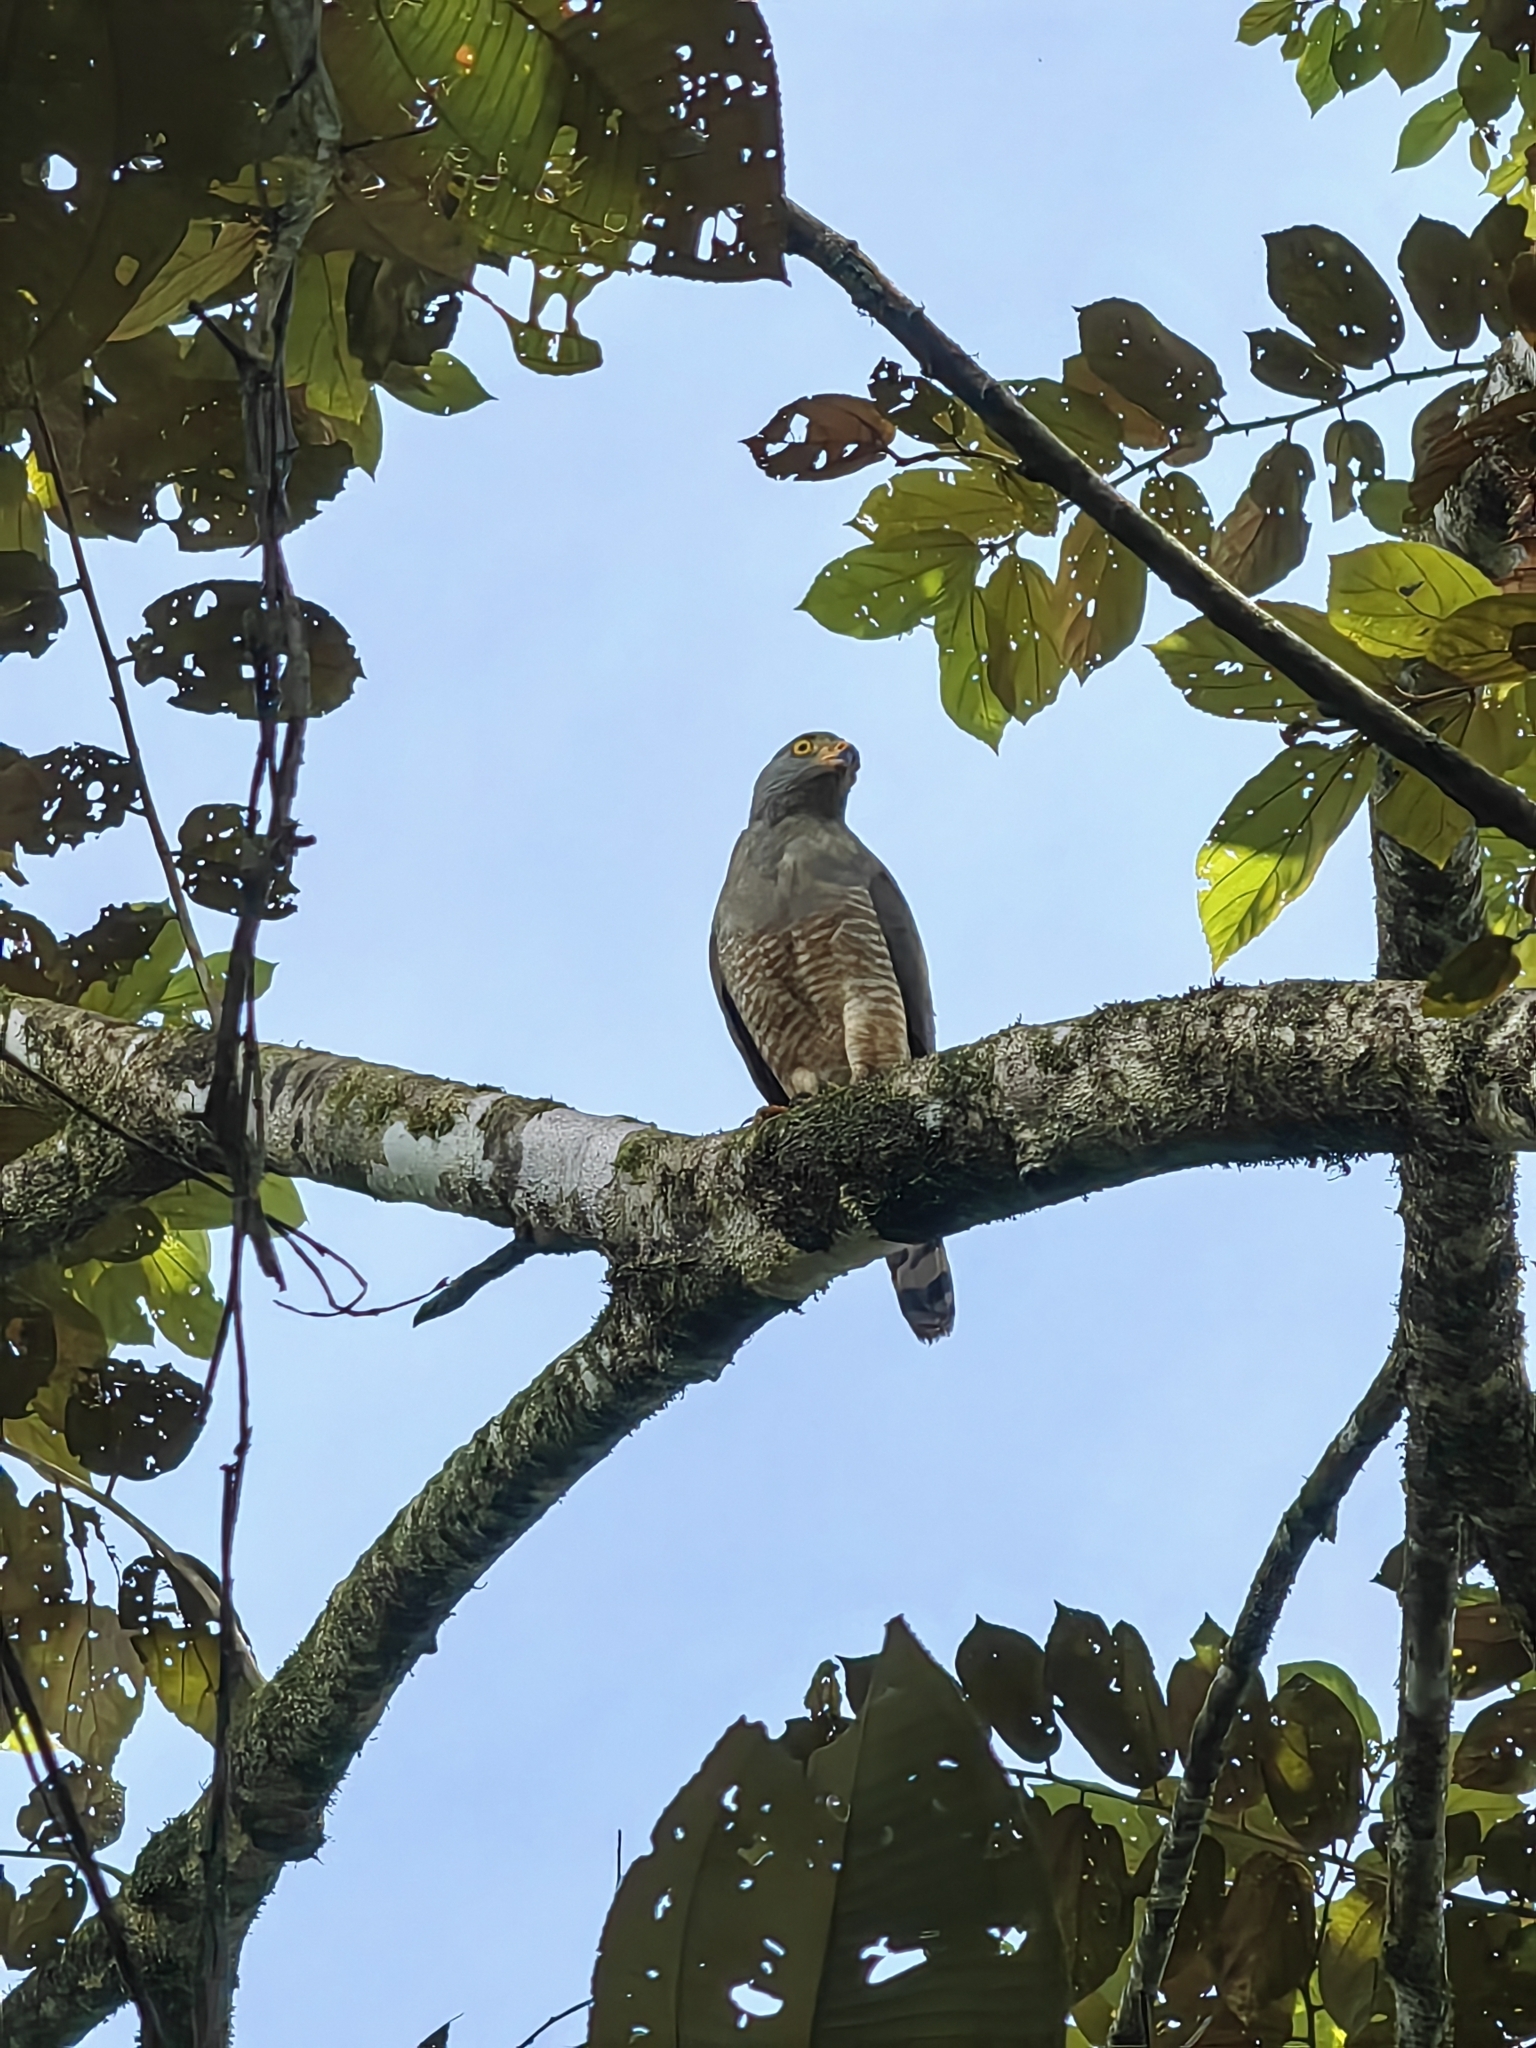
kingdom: Animalia
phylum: Chordata
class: Aves
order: Accipitriformes
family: Accipitridae
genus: Rupornis
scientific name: Rupornis magnirostris
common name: Roadside hawk
